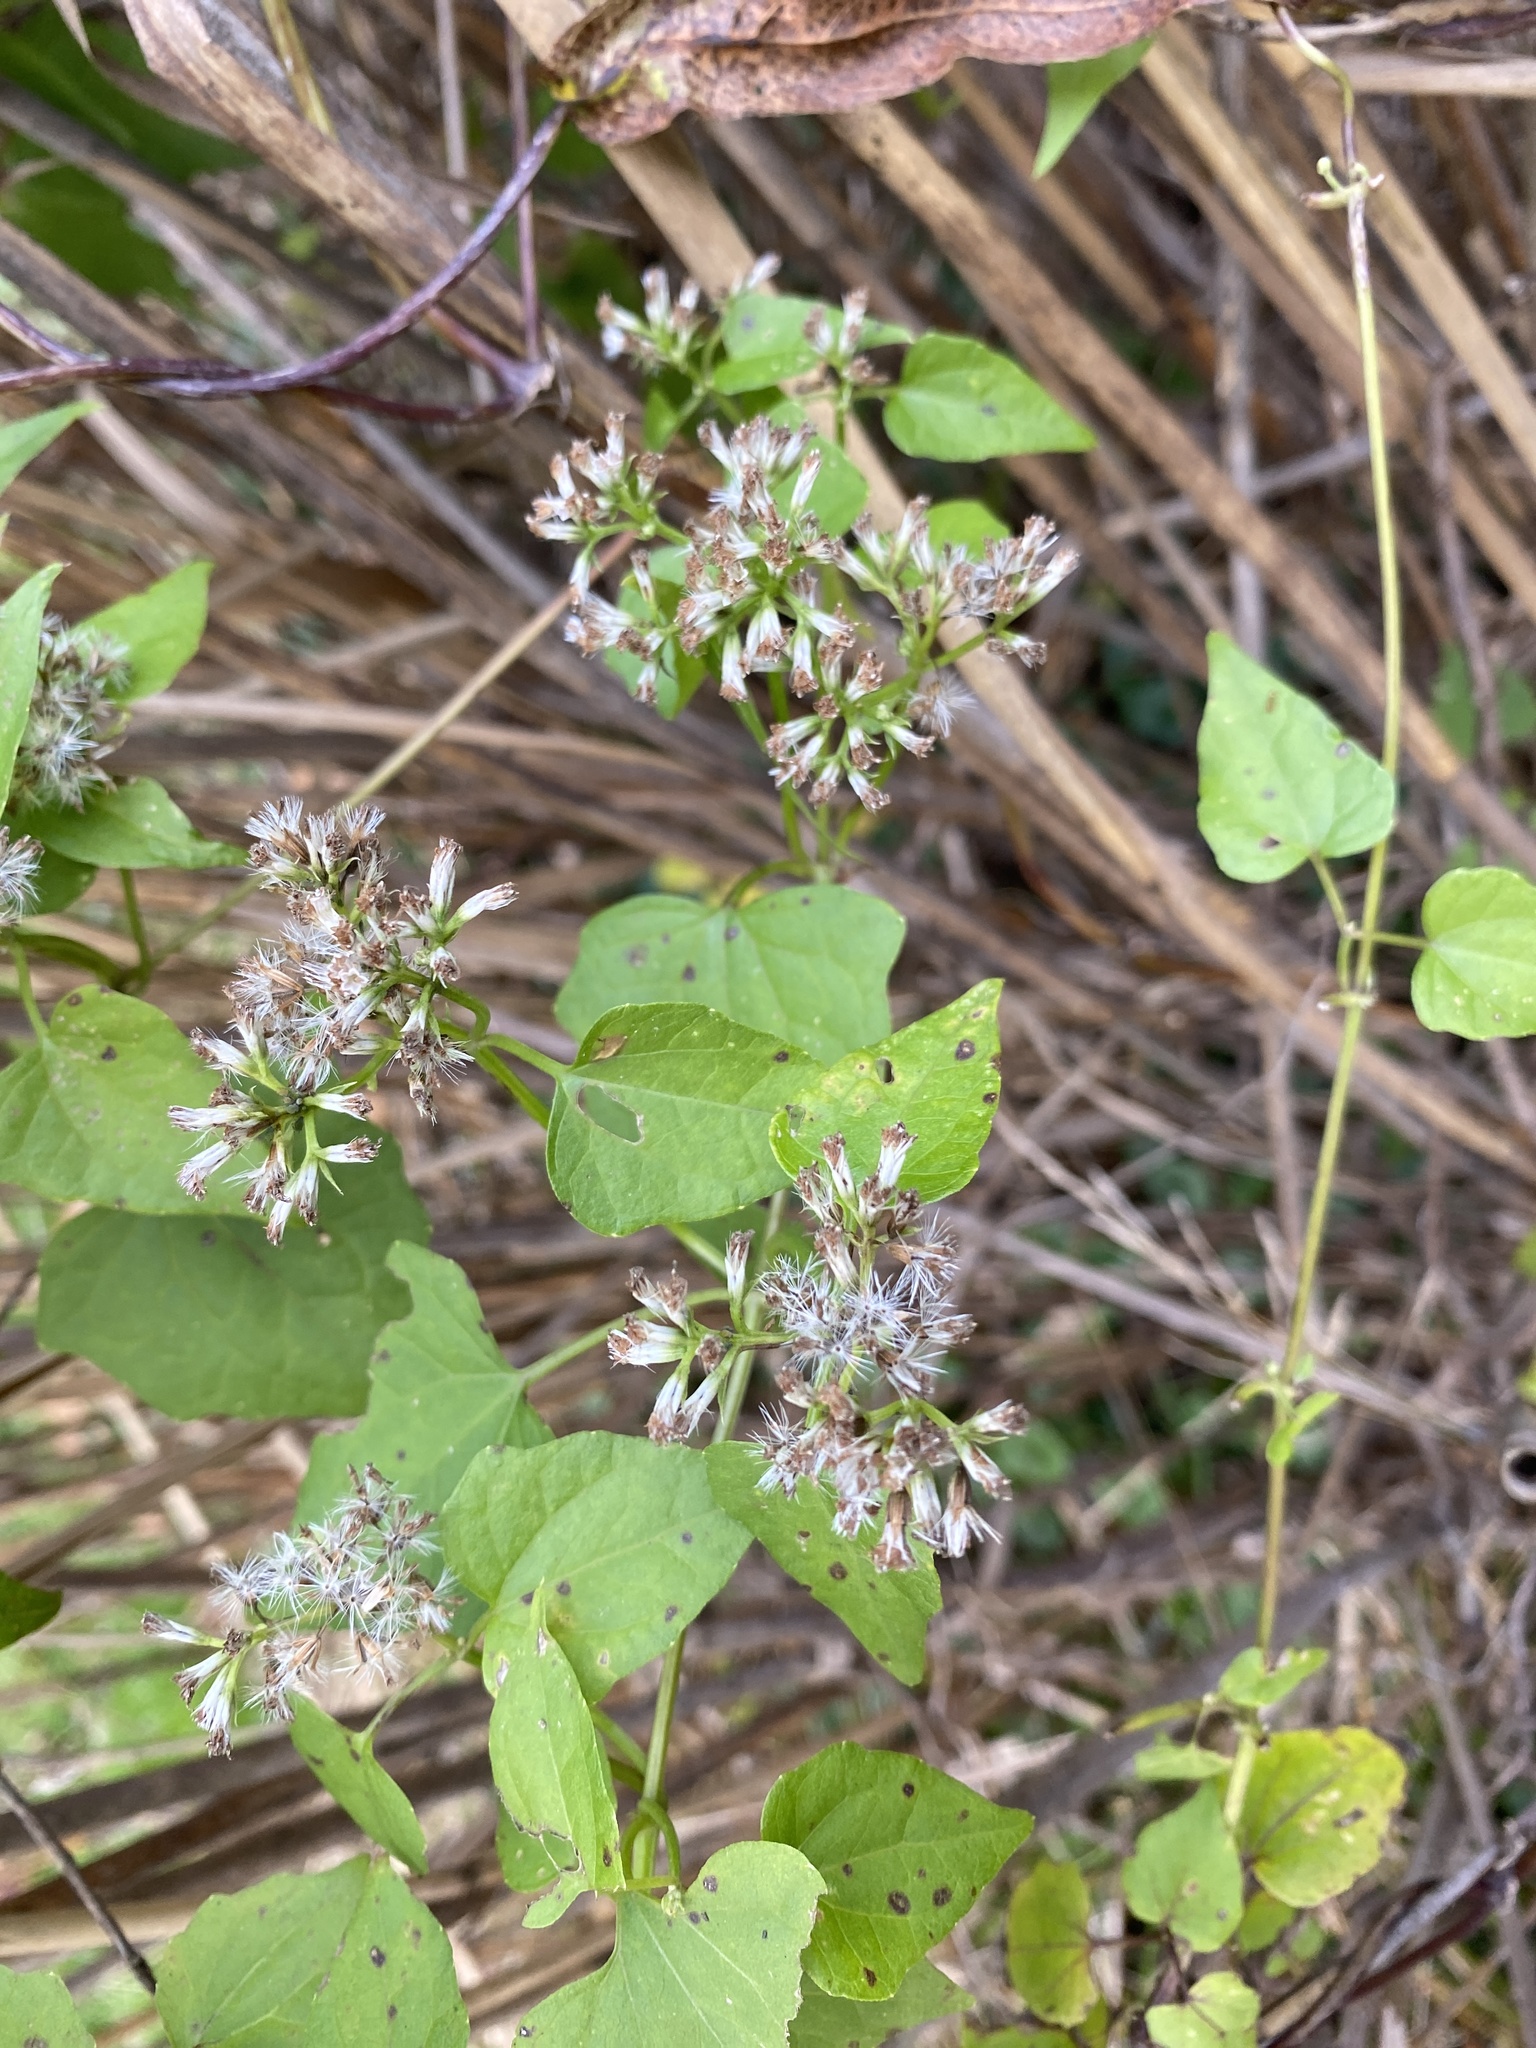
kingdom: Plantae
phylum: Tracheophyta
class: Magnoliopsida
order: Asterales
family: Asteraceae
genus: Mikania
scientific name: Mikania scandens
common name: Climbing hempvine
